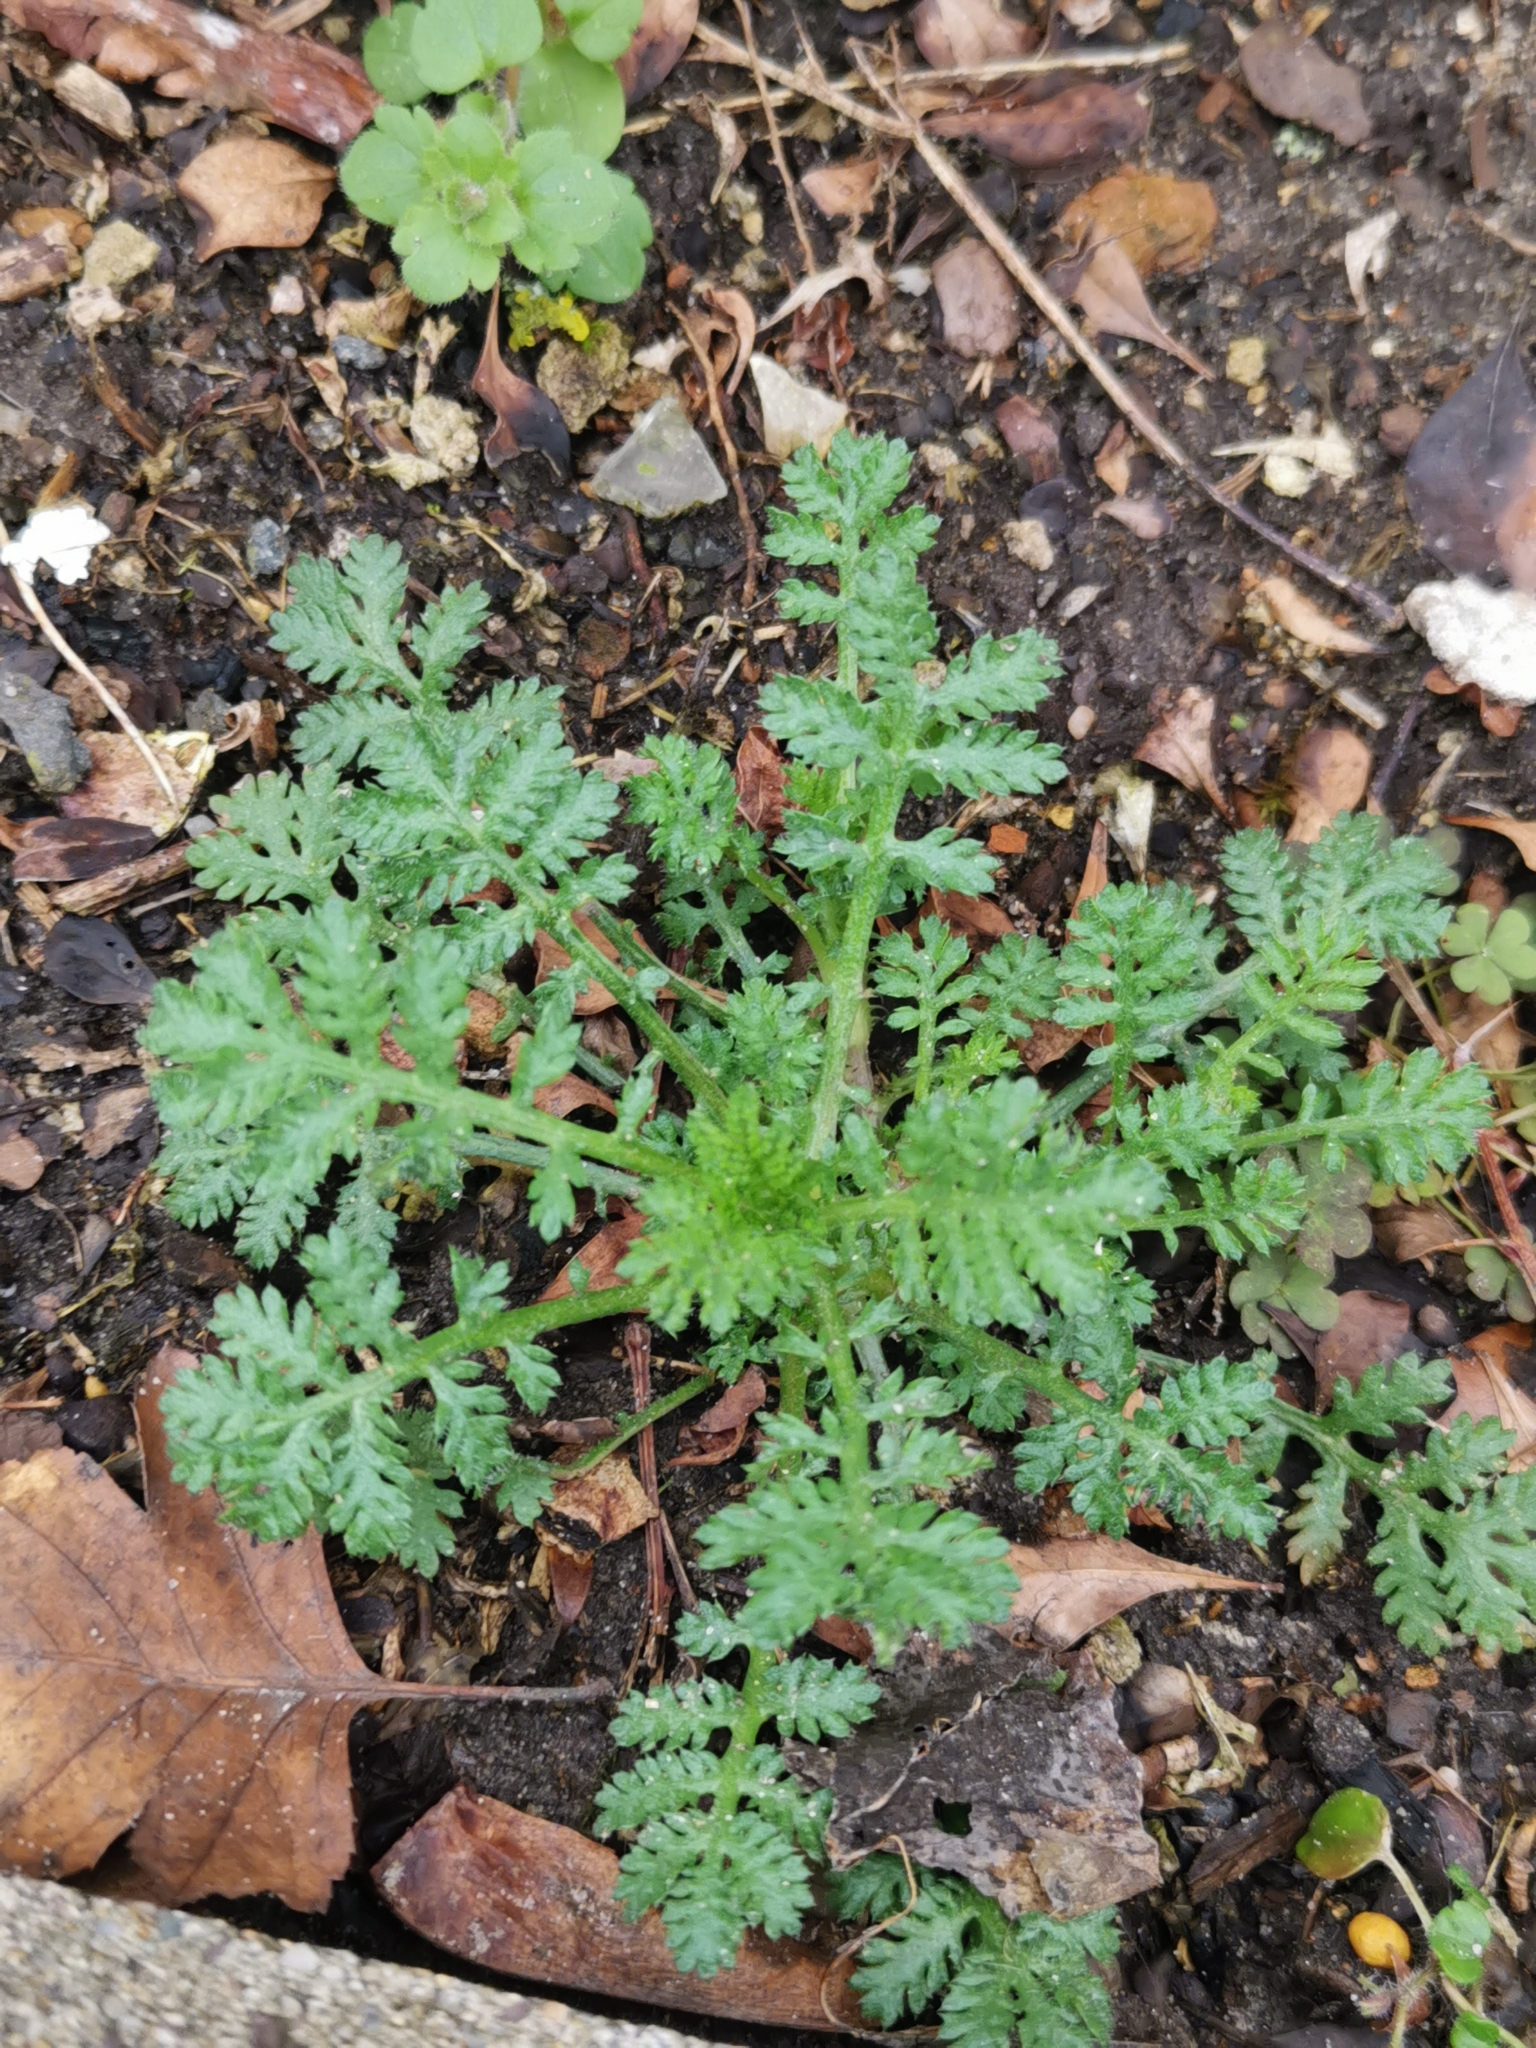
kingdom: Plantae
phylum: Tracheophyta
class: Magnoliopsida
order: Asterales
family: Asteraceae
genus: Tanacetum
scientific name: Tanacetum vulgare
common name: Common tansy
